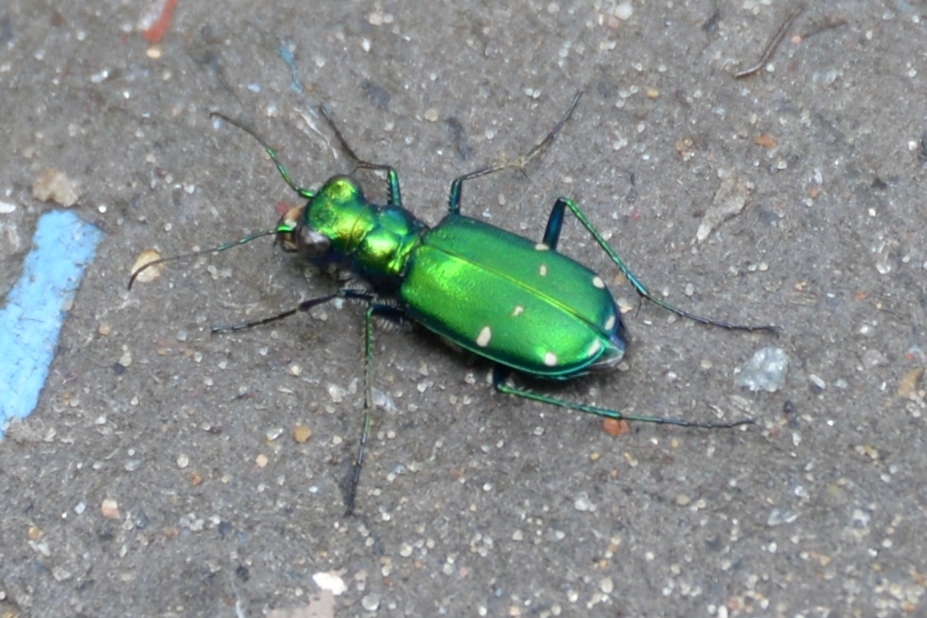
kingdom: Animalia
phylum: Arthropoda
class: Insecta
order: Coleoptera
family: Carabidae
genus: Cicindela
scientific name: Cicindela sexguttata
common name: Six-spotted tiger beetle
